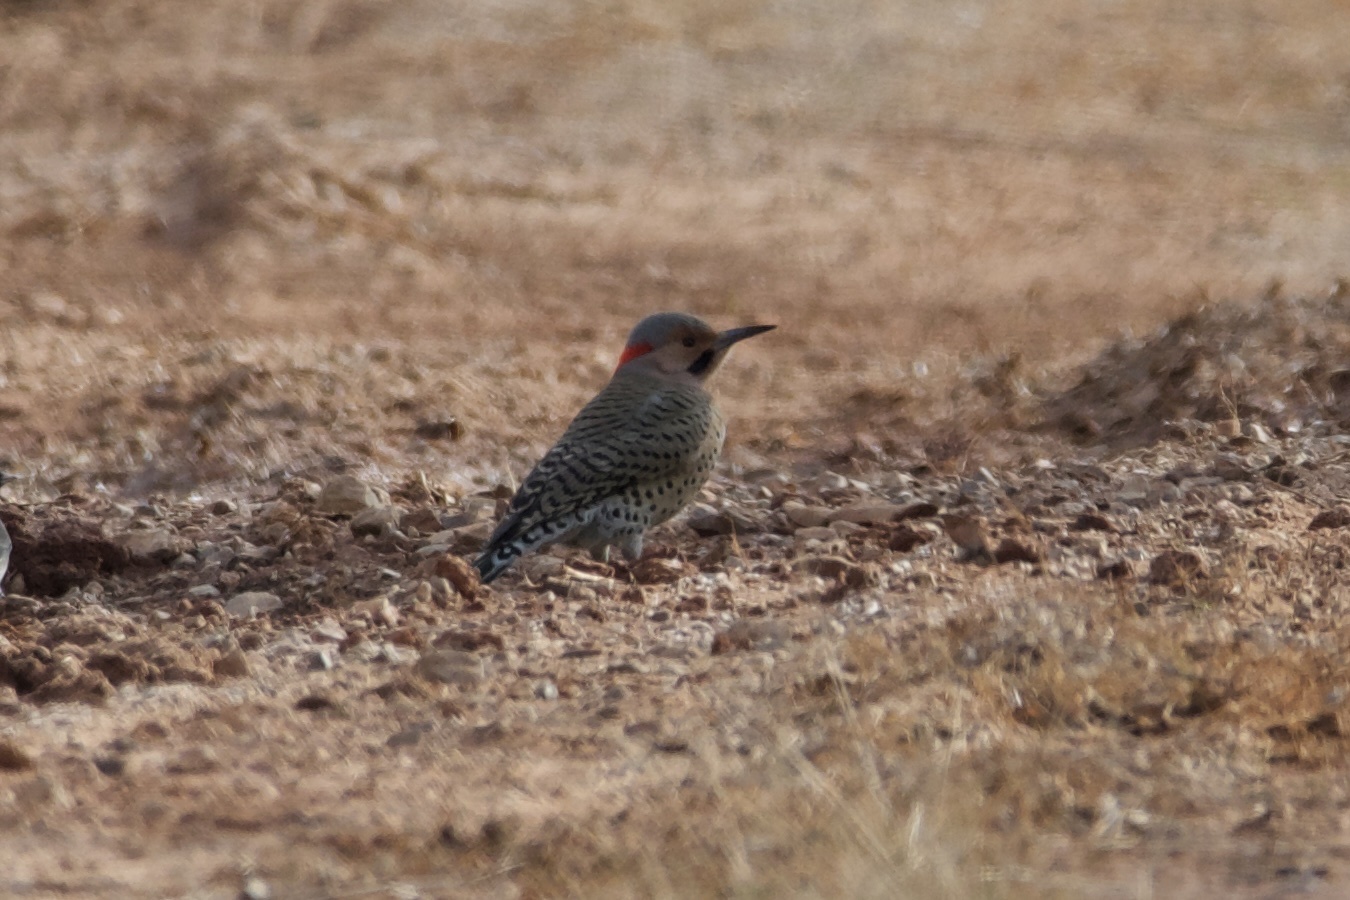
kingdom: Animalia
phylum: Chordata
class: Aves
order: Piciformes
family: Picidae
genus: Colaptes
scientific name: Colaptes auratus
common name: Northern flicker
